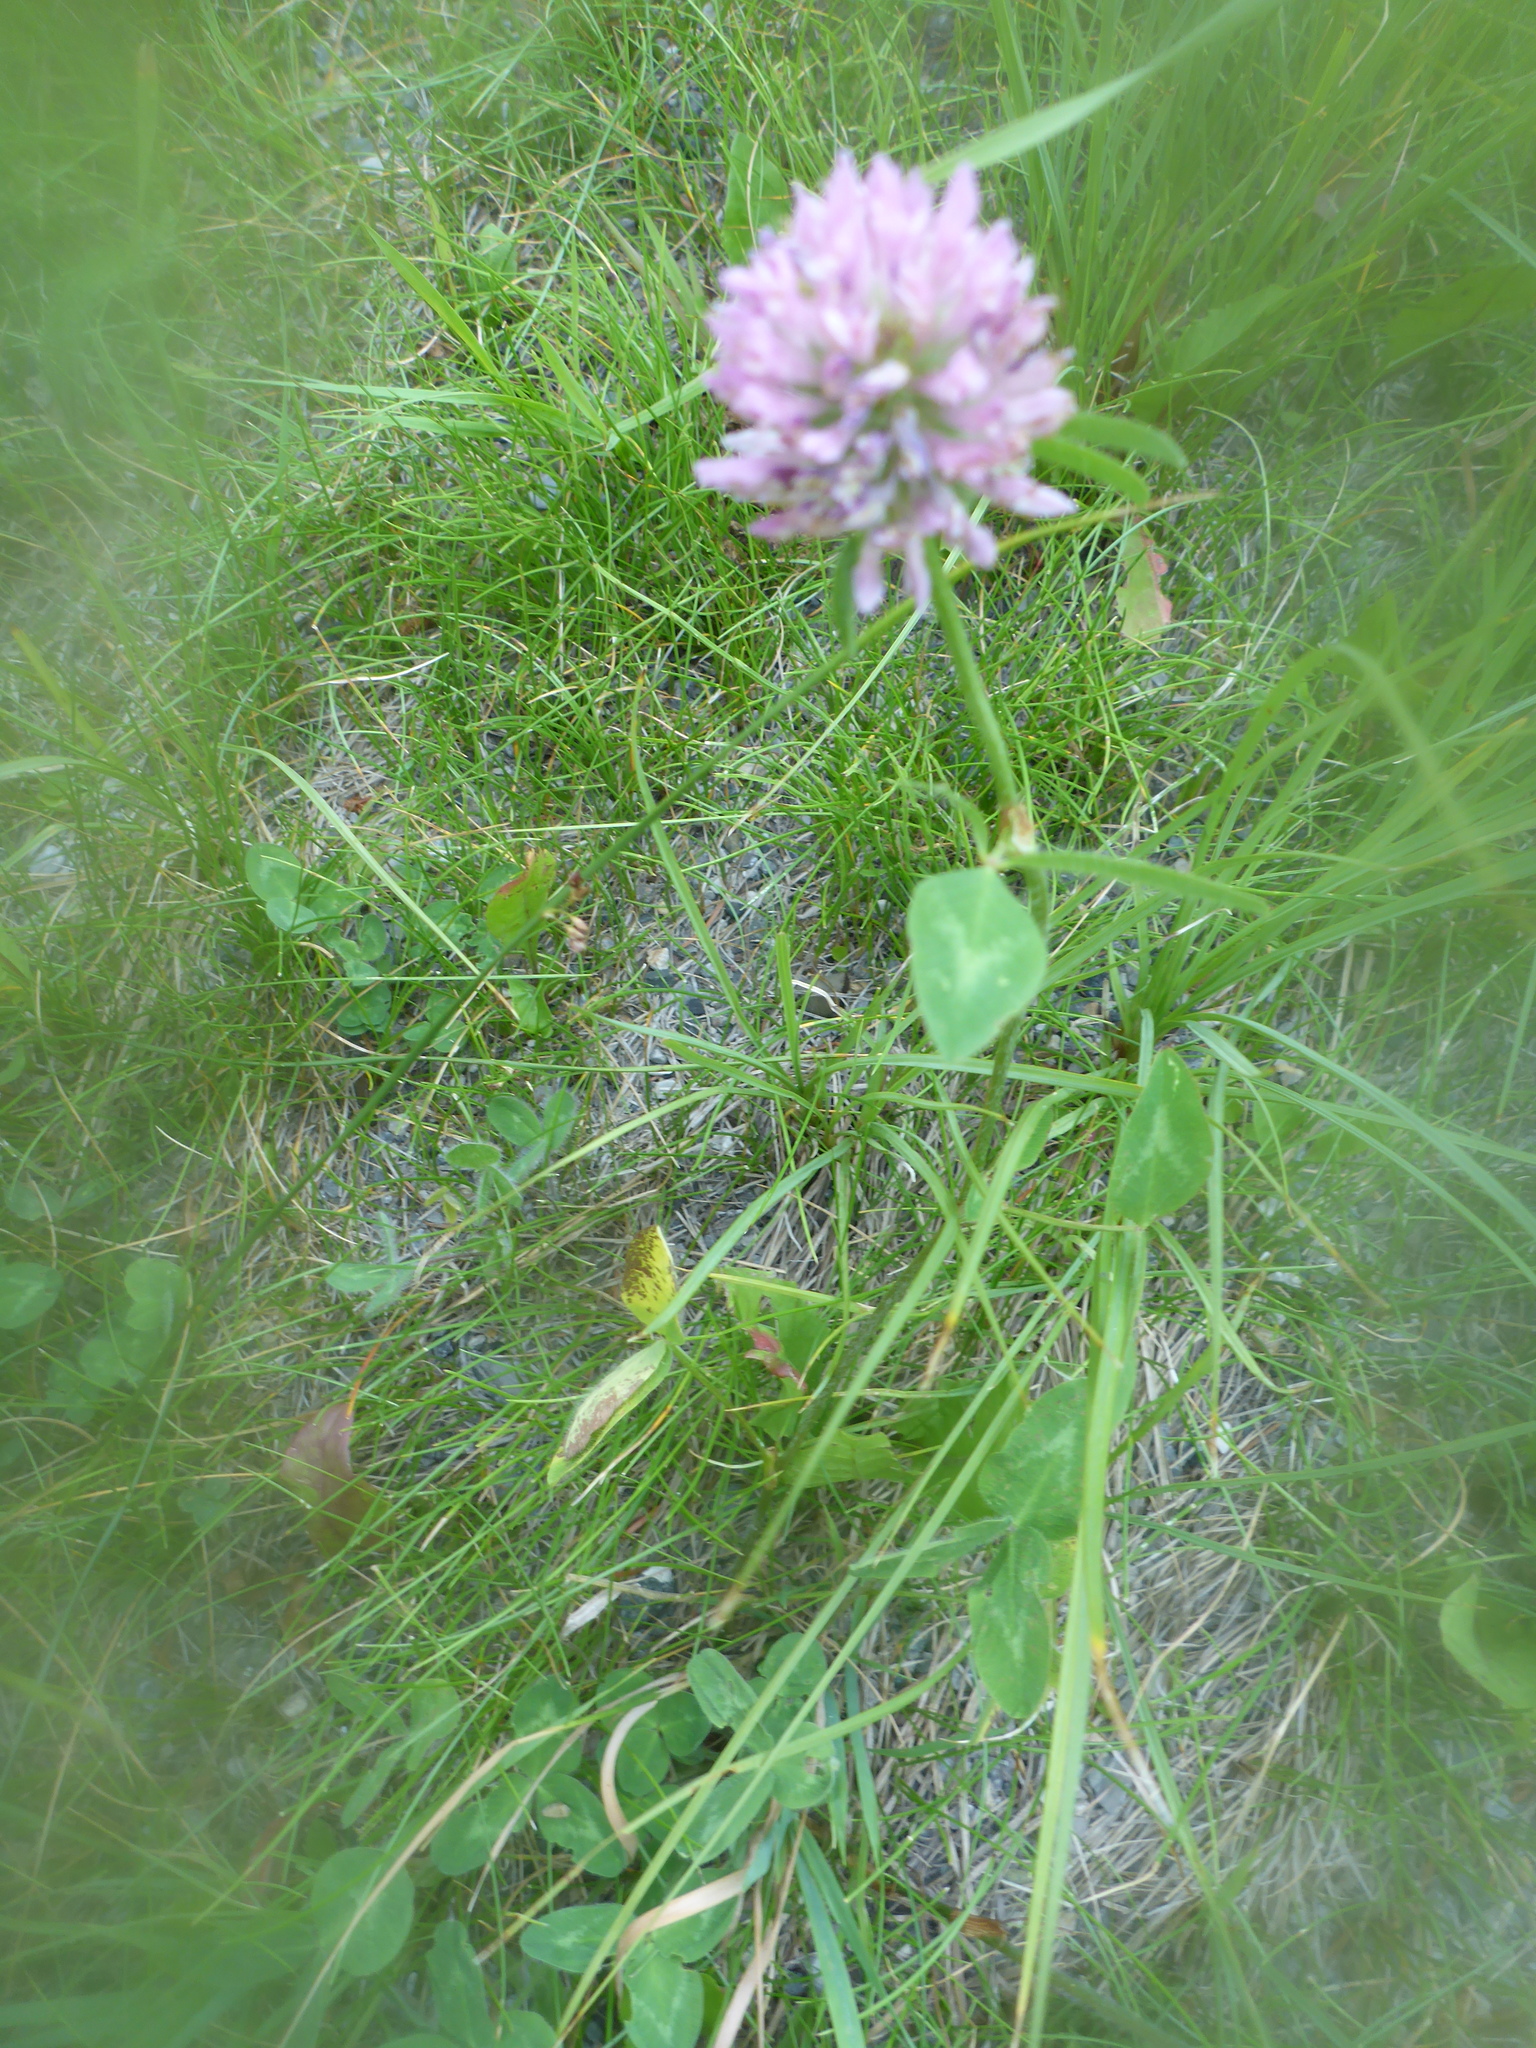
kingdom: Plantae
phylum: Tracheophyta
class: Magnoliopsida
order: Fabales
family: Fabaceae
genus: Trifolium
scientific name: Trifolium pratense
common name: Red clover
